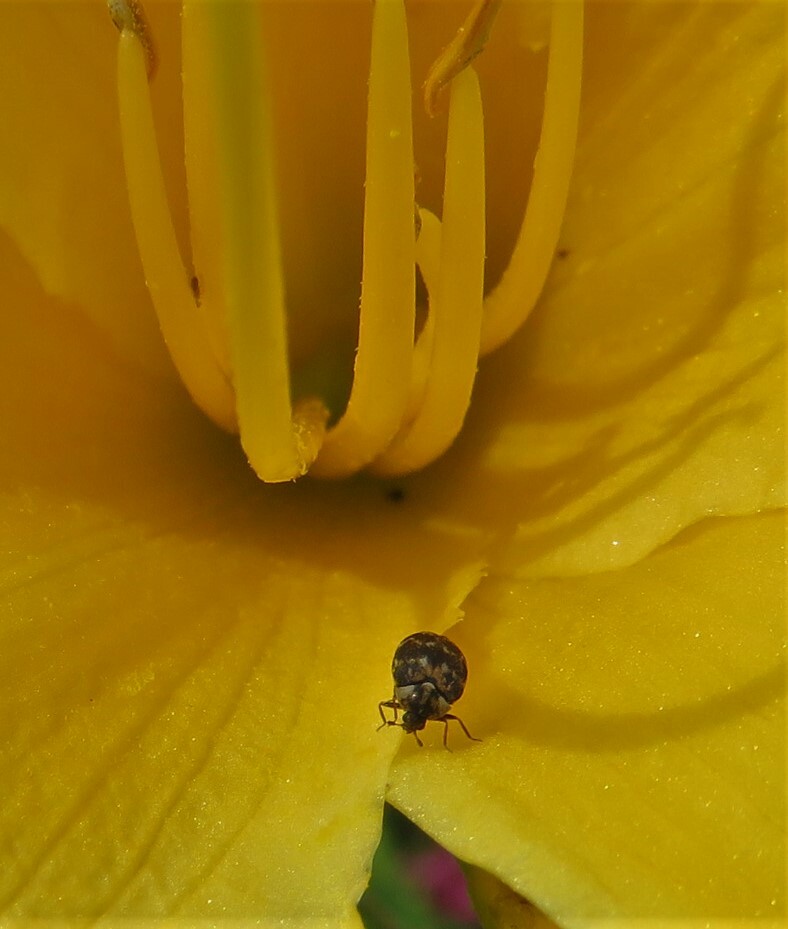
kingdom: Animalia
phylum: Arthropoda
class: Insecta
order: Coleoptera
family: Dermestidae
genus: Anthrenus
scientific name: Anthrenus museorum
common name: Museum beetle
